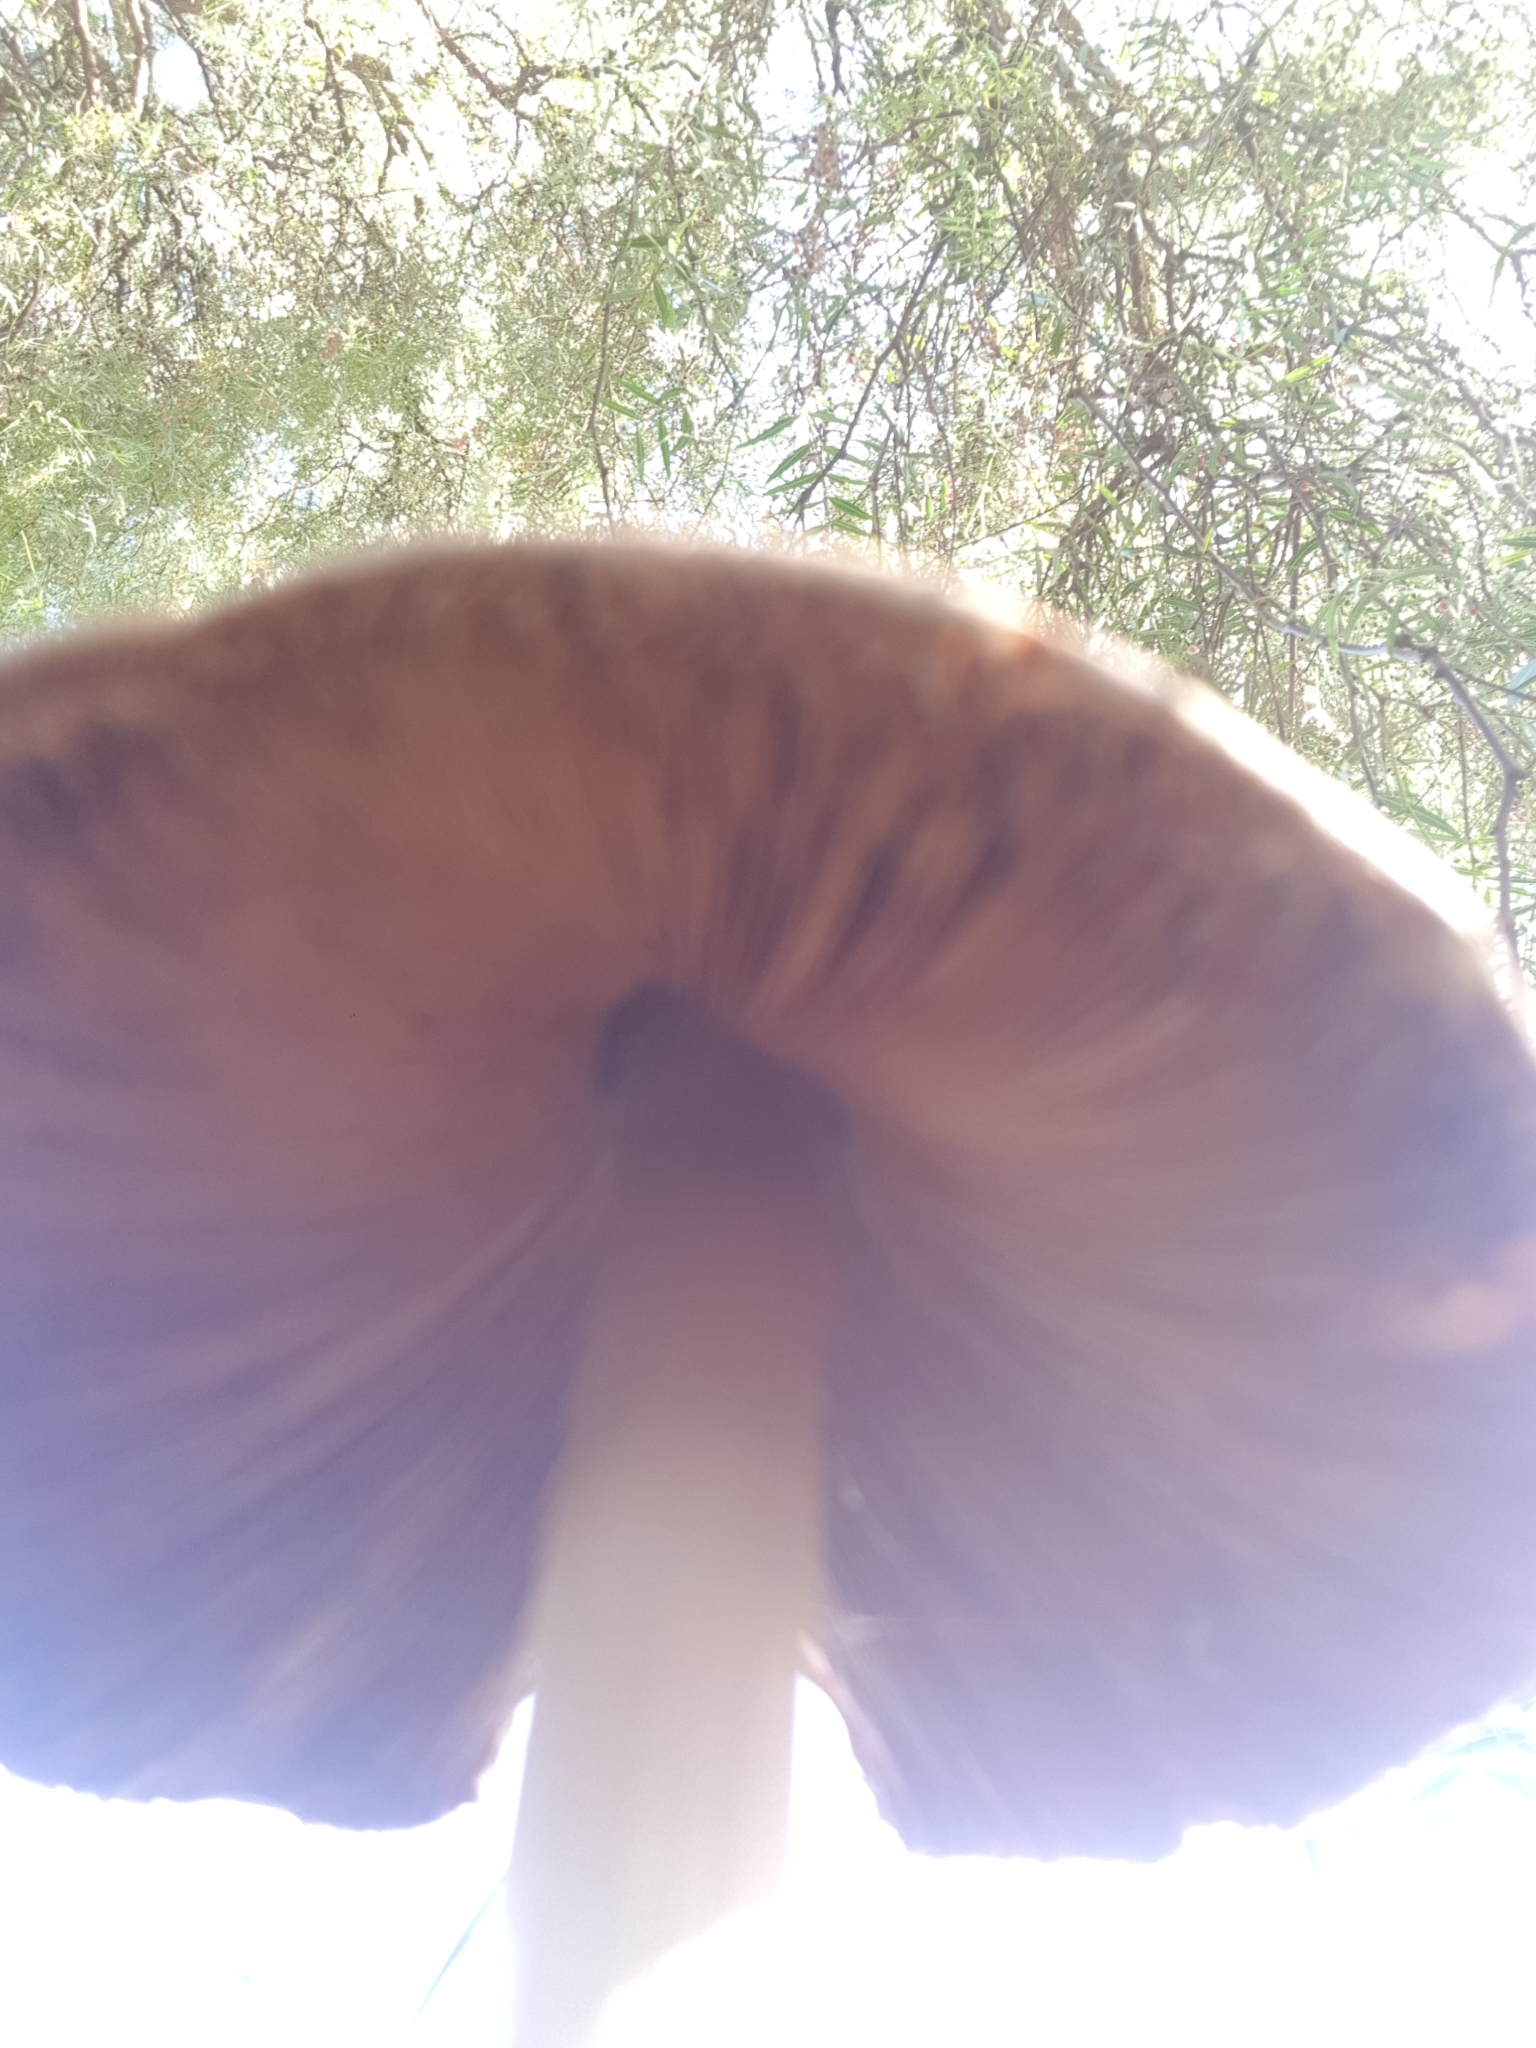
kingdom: Fungi
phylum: Basidiomycota
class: Agaricomycetes
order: Agaricales
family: Pluteaceae
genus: Volvopluteus
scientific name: Volvopluteus gloiocephalus
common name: Stubble rosegill
